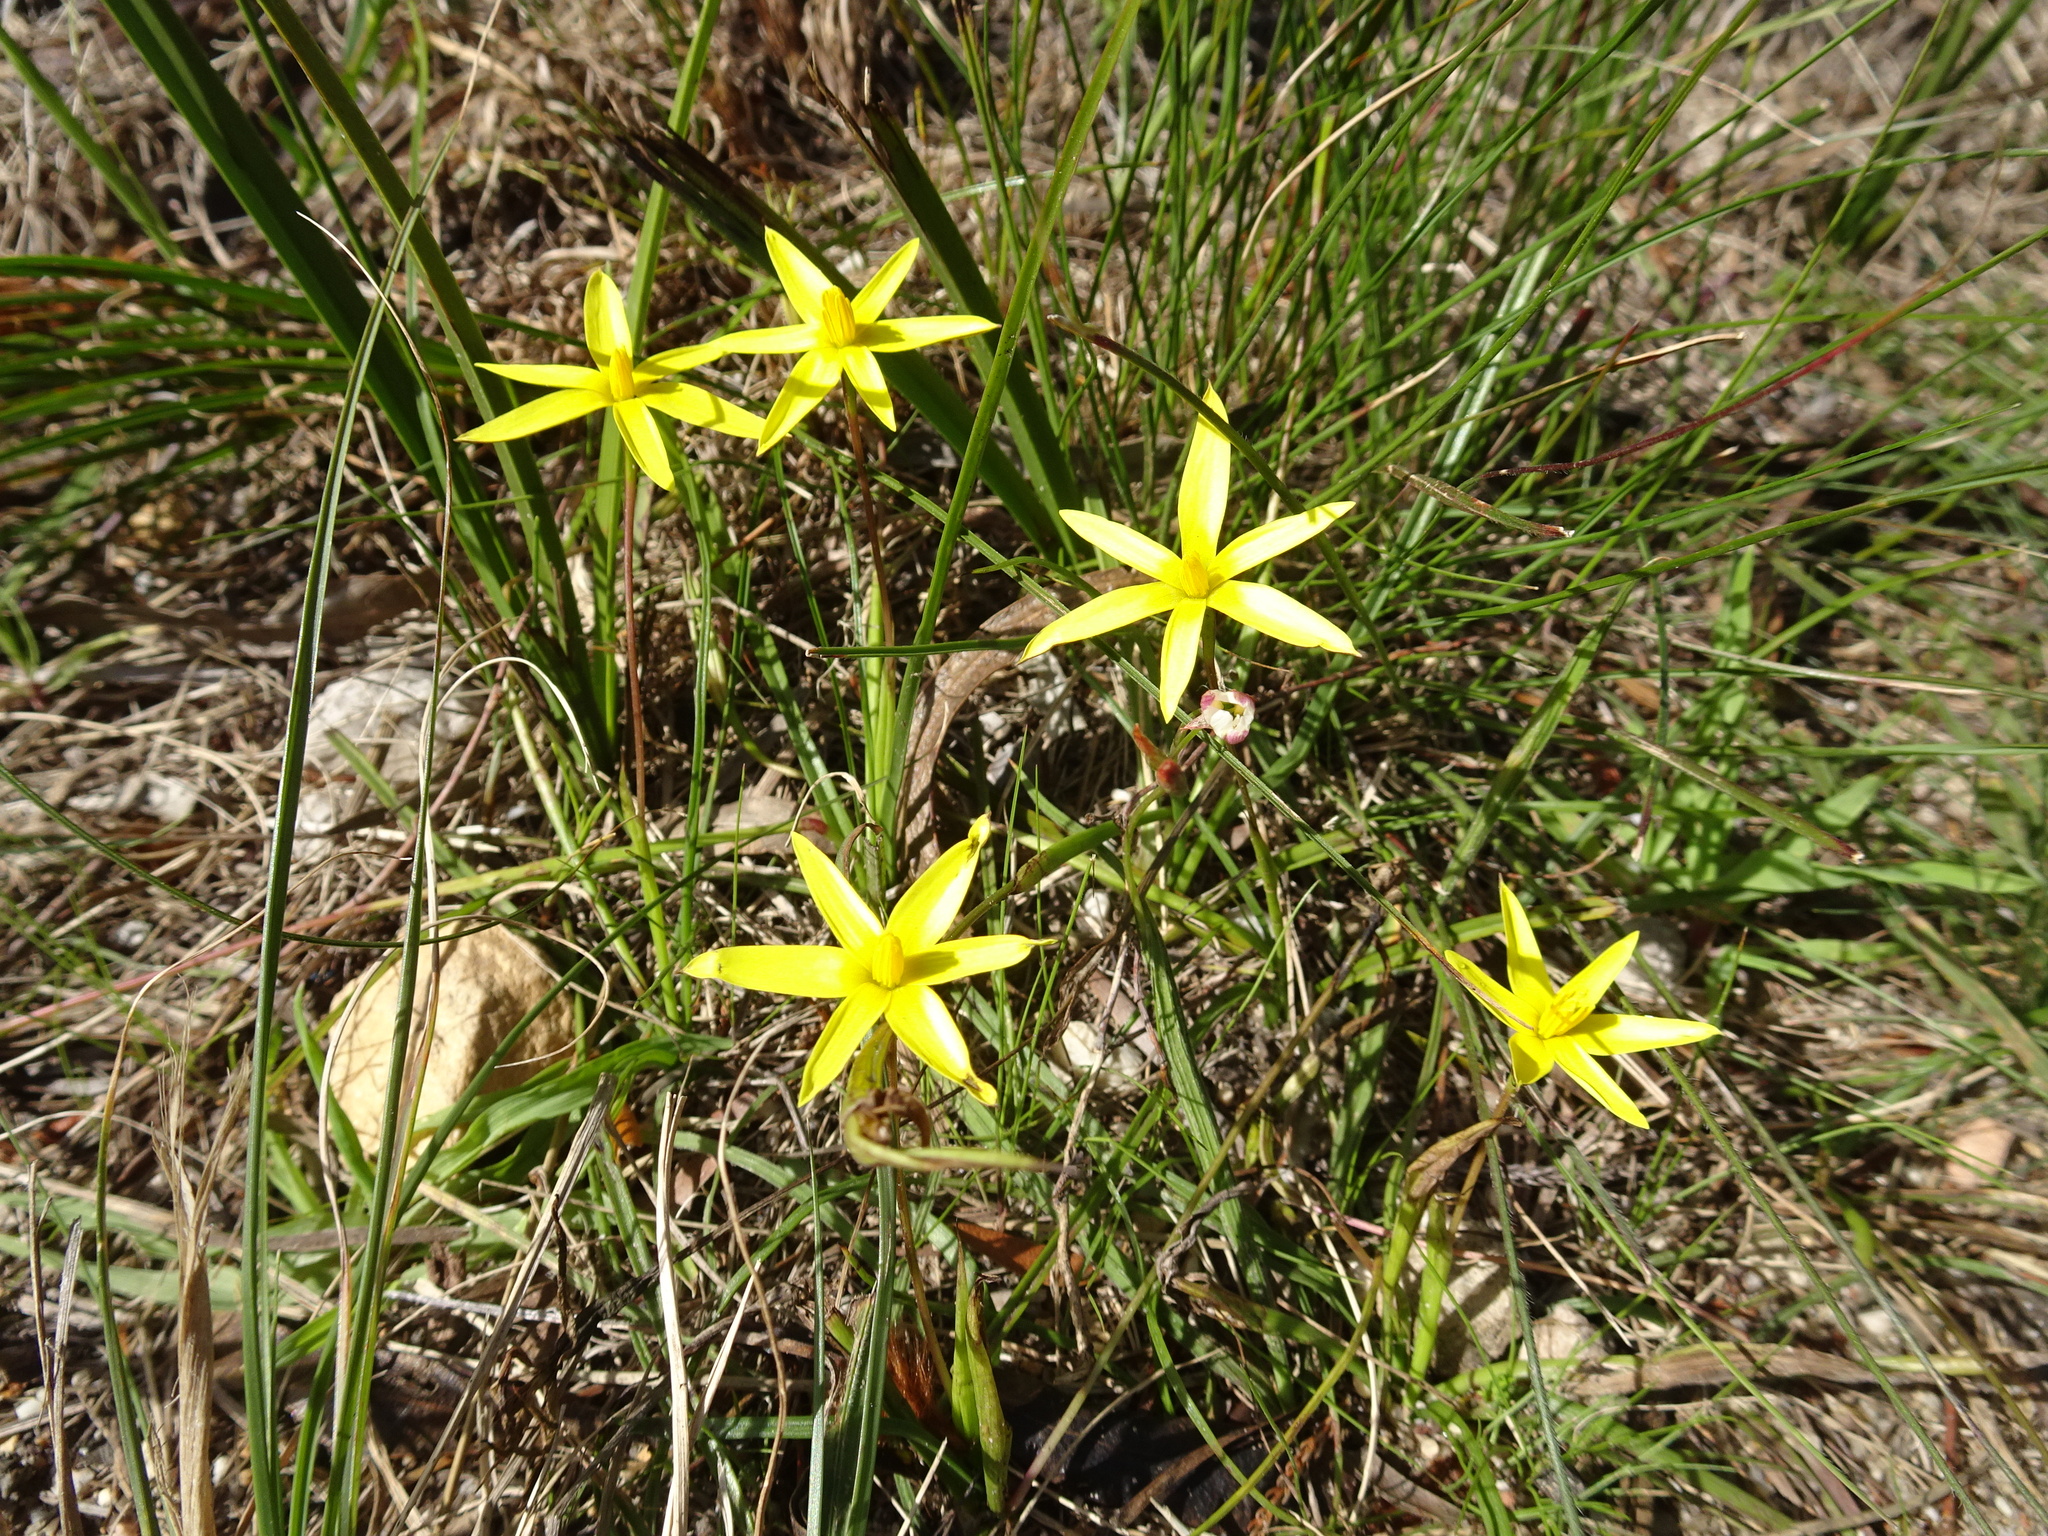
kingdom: Plantae
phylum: Tracheophyta
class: Liliopsida
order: Asparagales
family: Hypoxidaceae
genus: Pauridia
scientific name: Pauridia capensis
